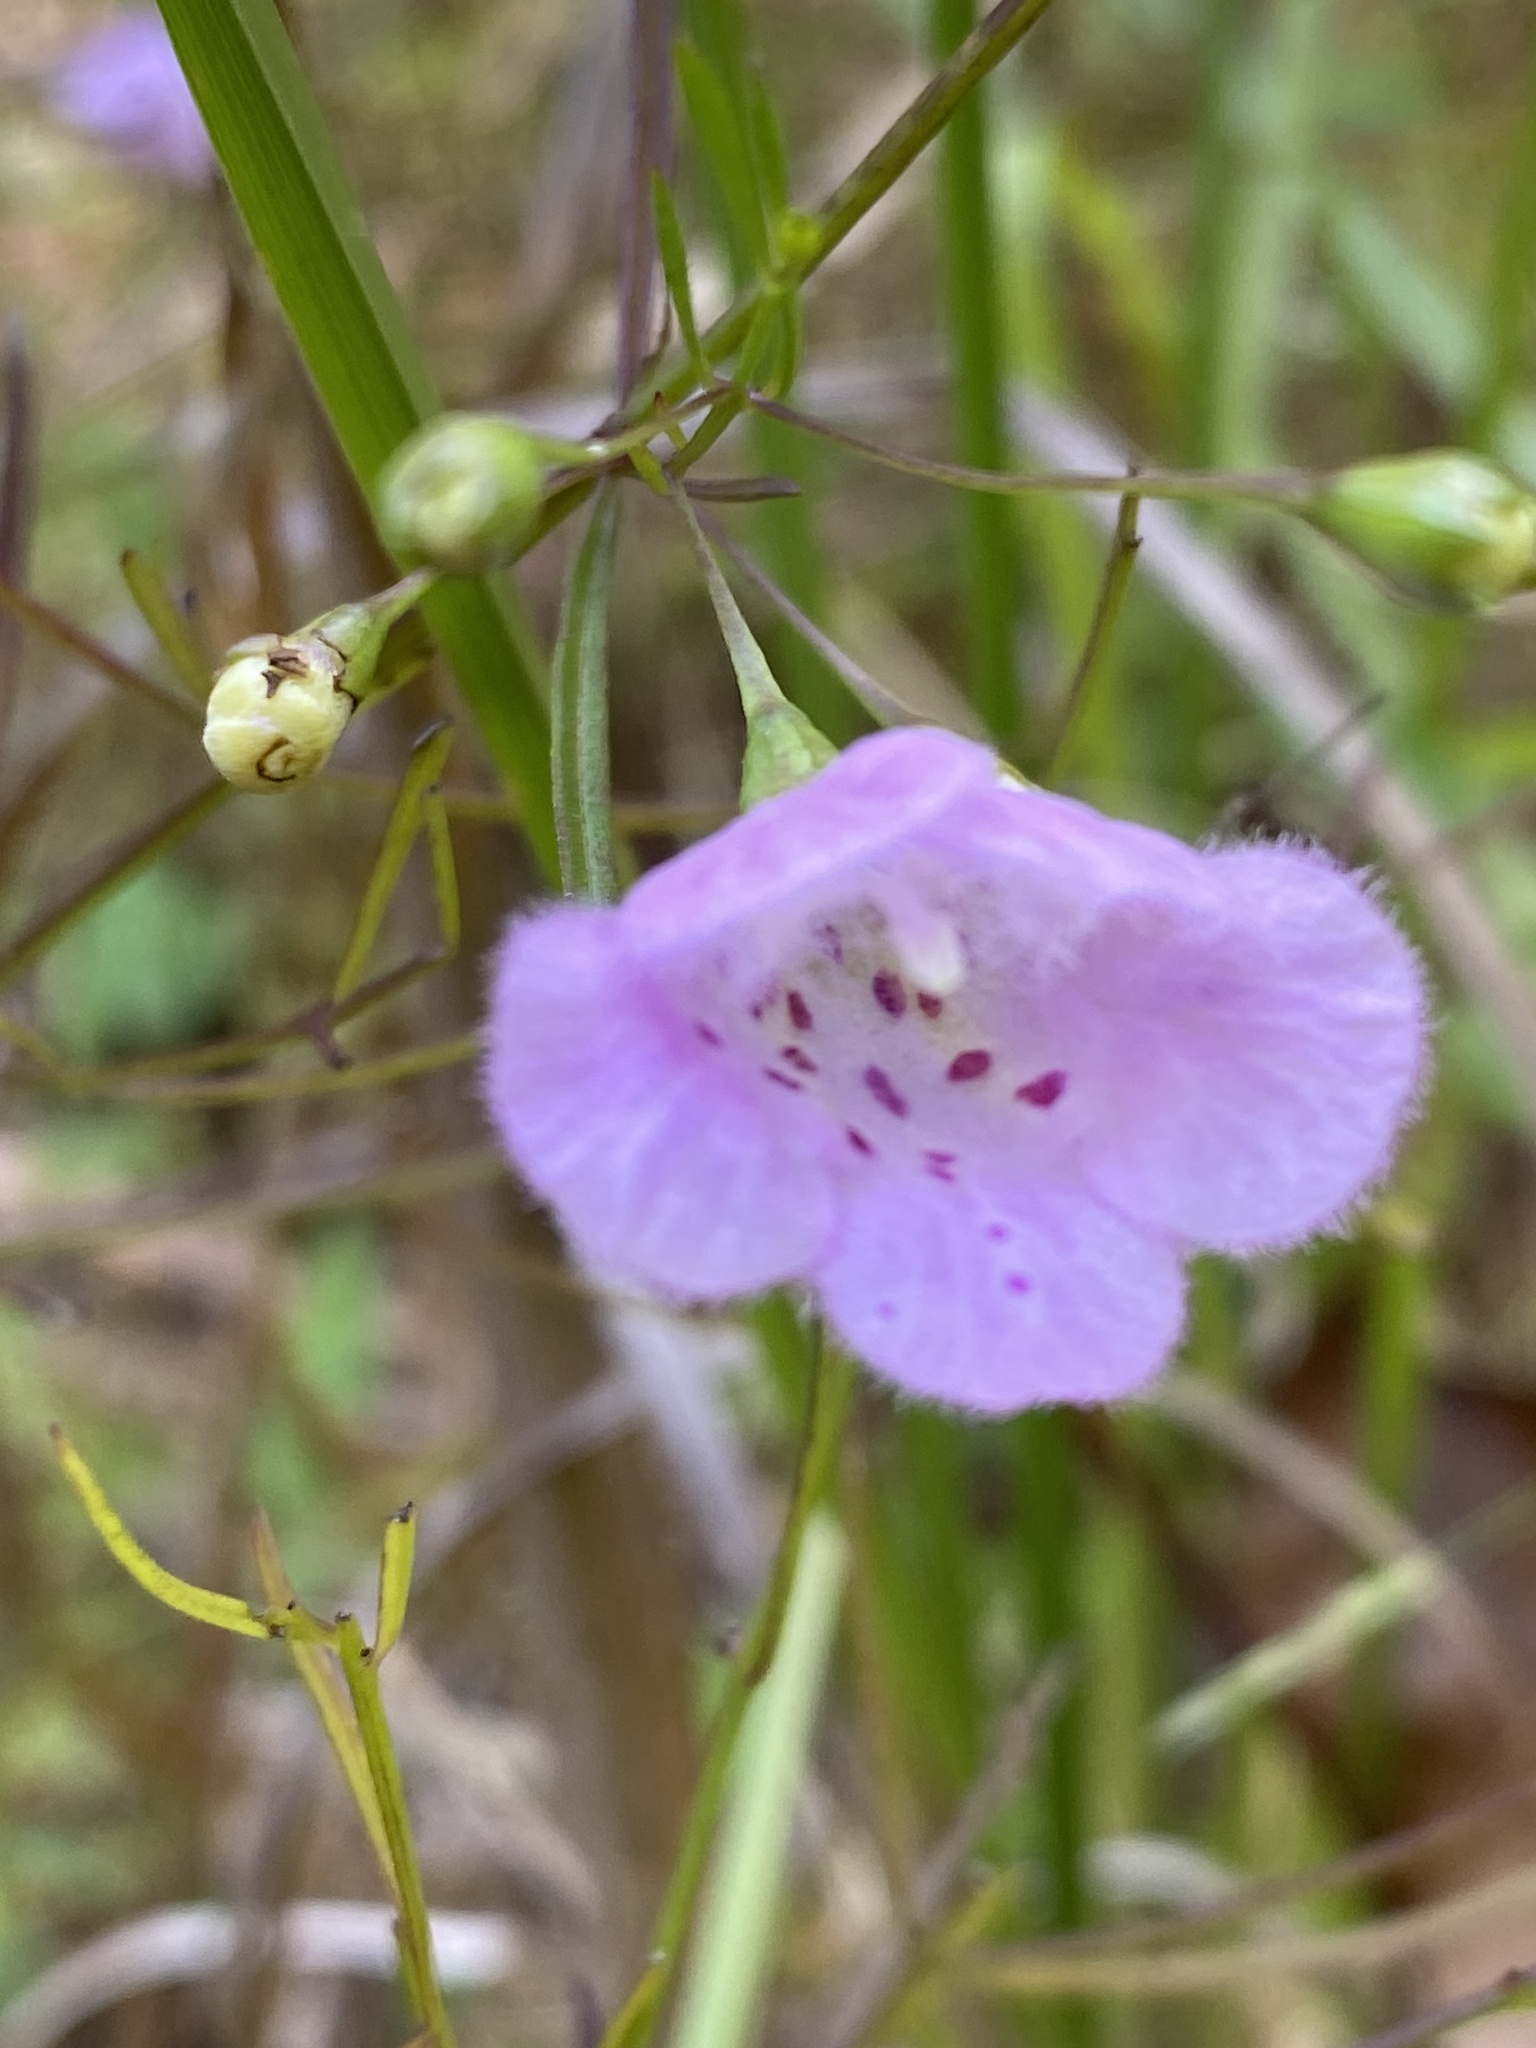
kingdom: Plantae
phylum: Tracheophyta
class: Magnoliopsida
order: Lamiales
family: Orobanchaceae
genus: Agalinis
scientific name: Agalinis tenuifolia
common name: Slender agalinis
